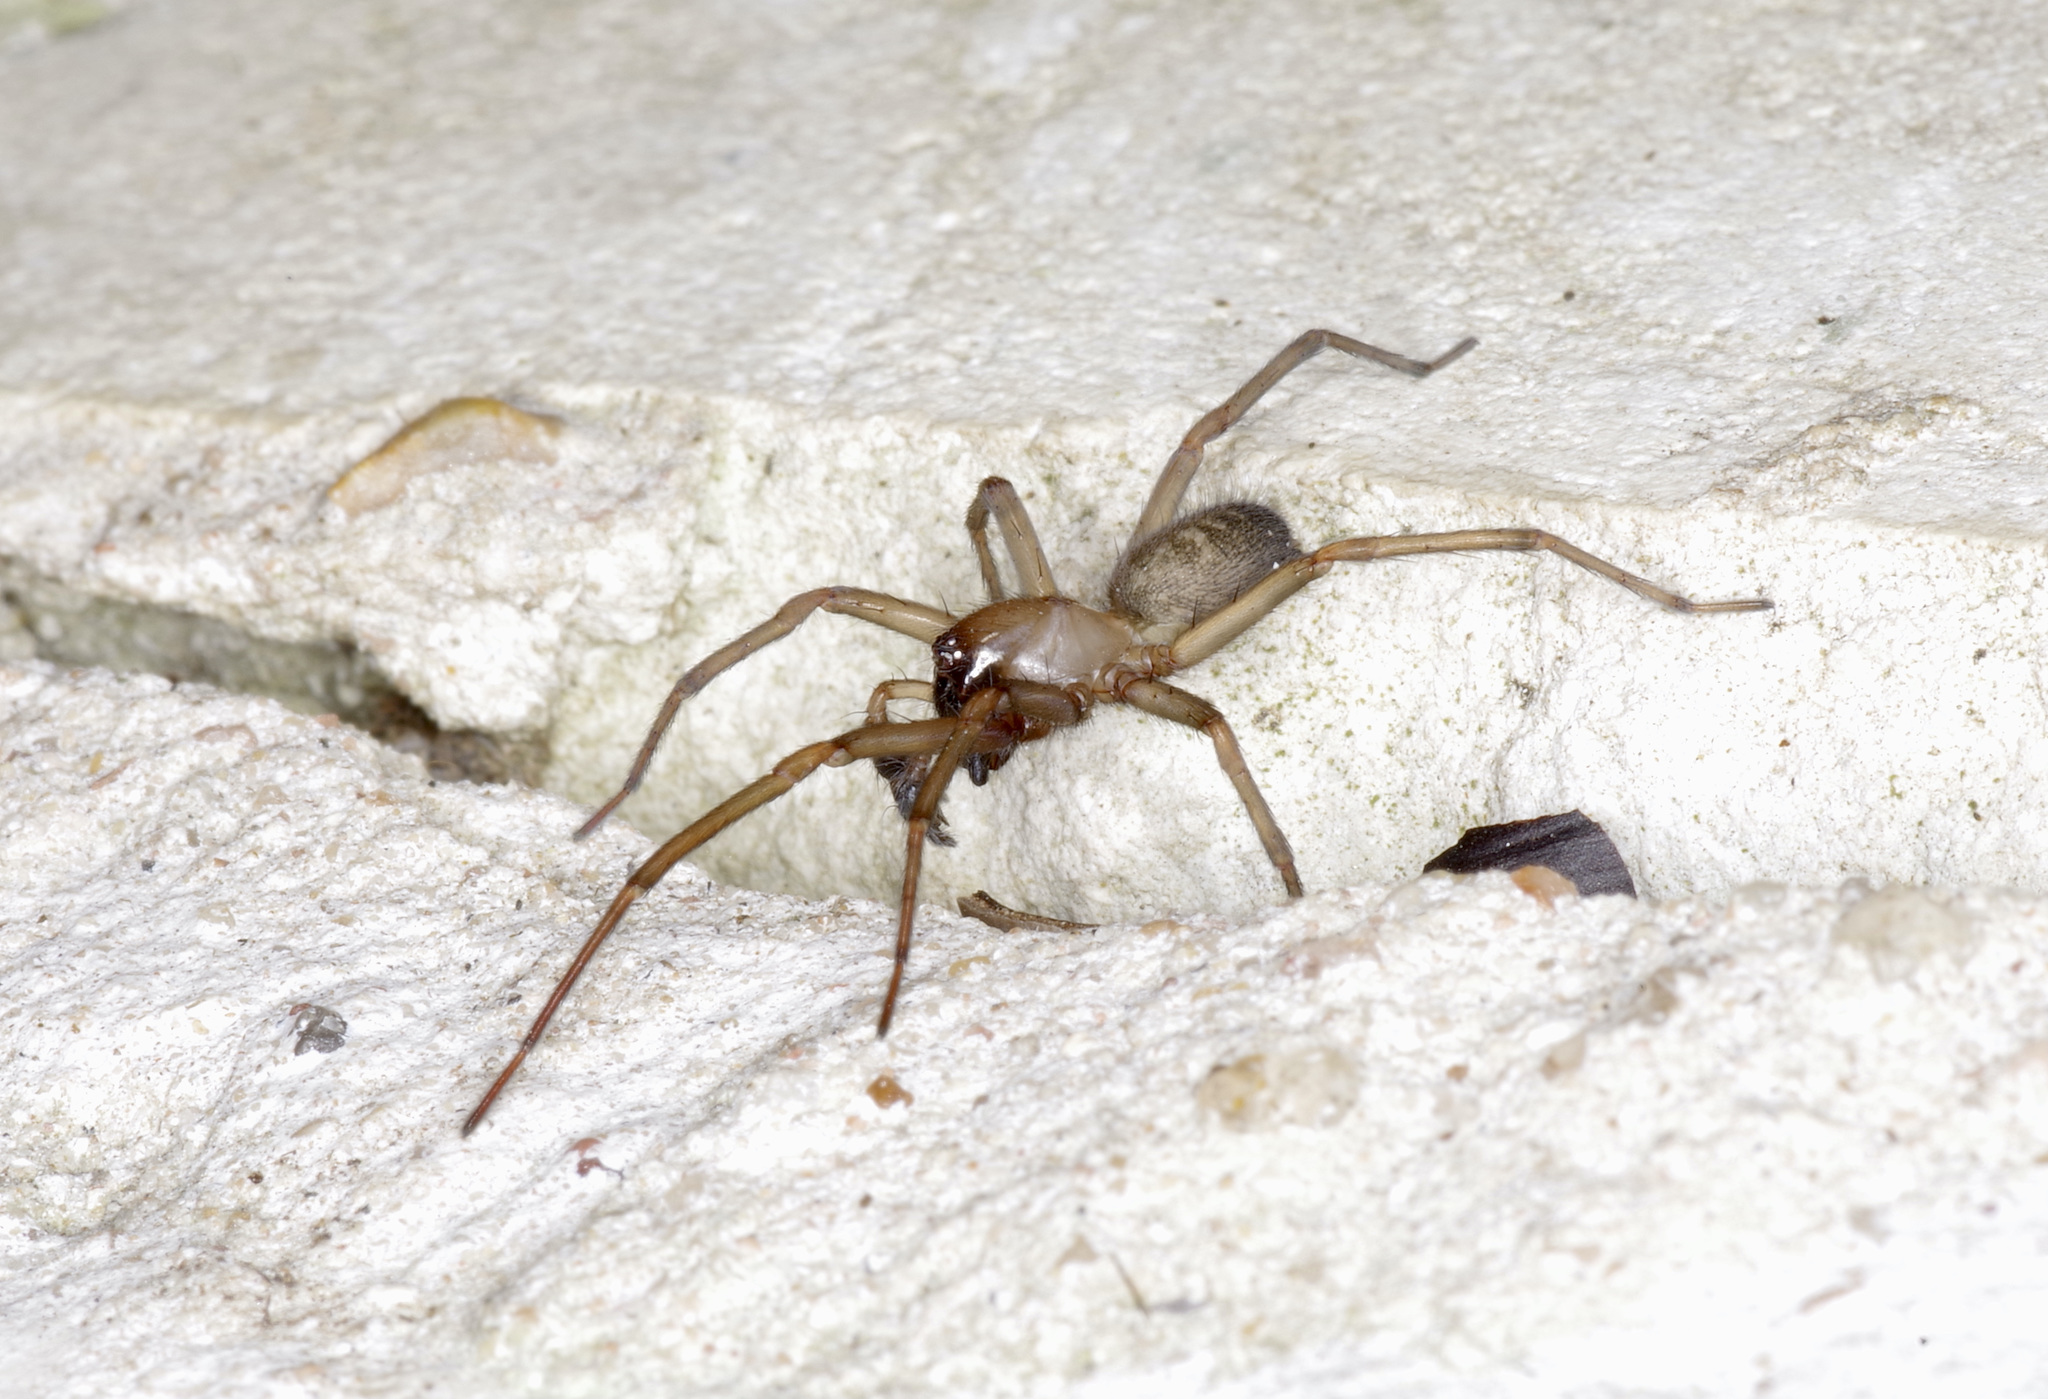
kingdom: Animalia
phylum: Arthropoda
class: Arachnida
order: Araneae
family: Desidae
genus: Metaltella
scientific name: Metaltella simoni
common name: Cribellate spider
